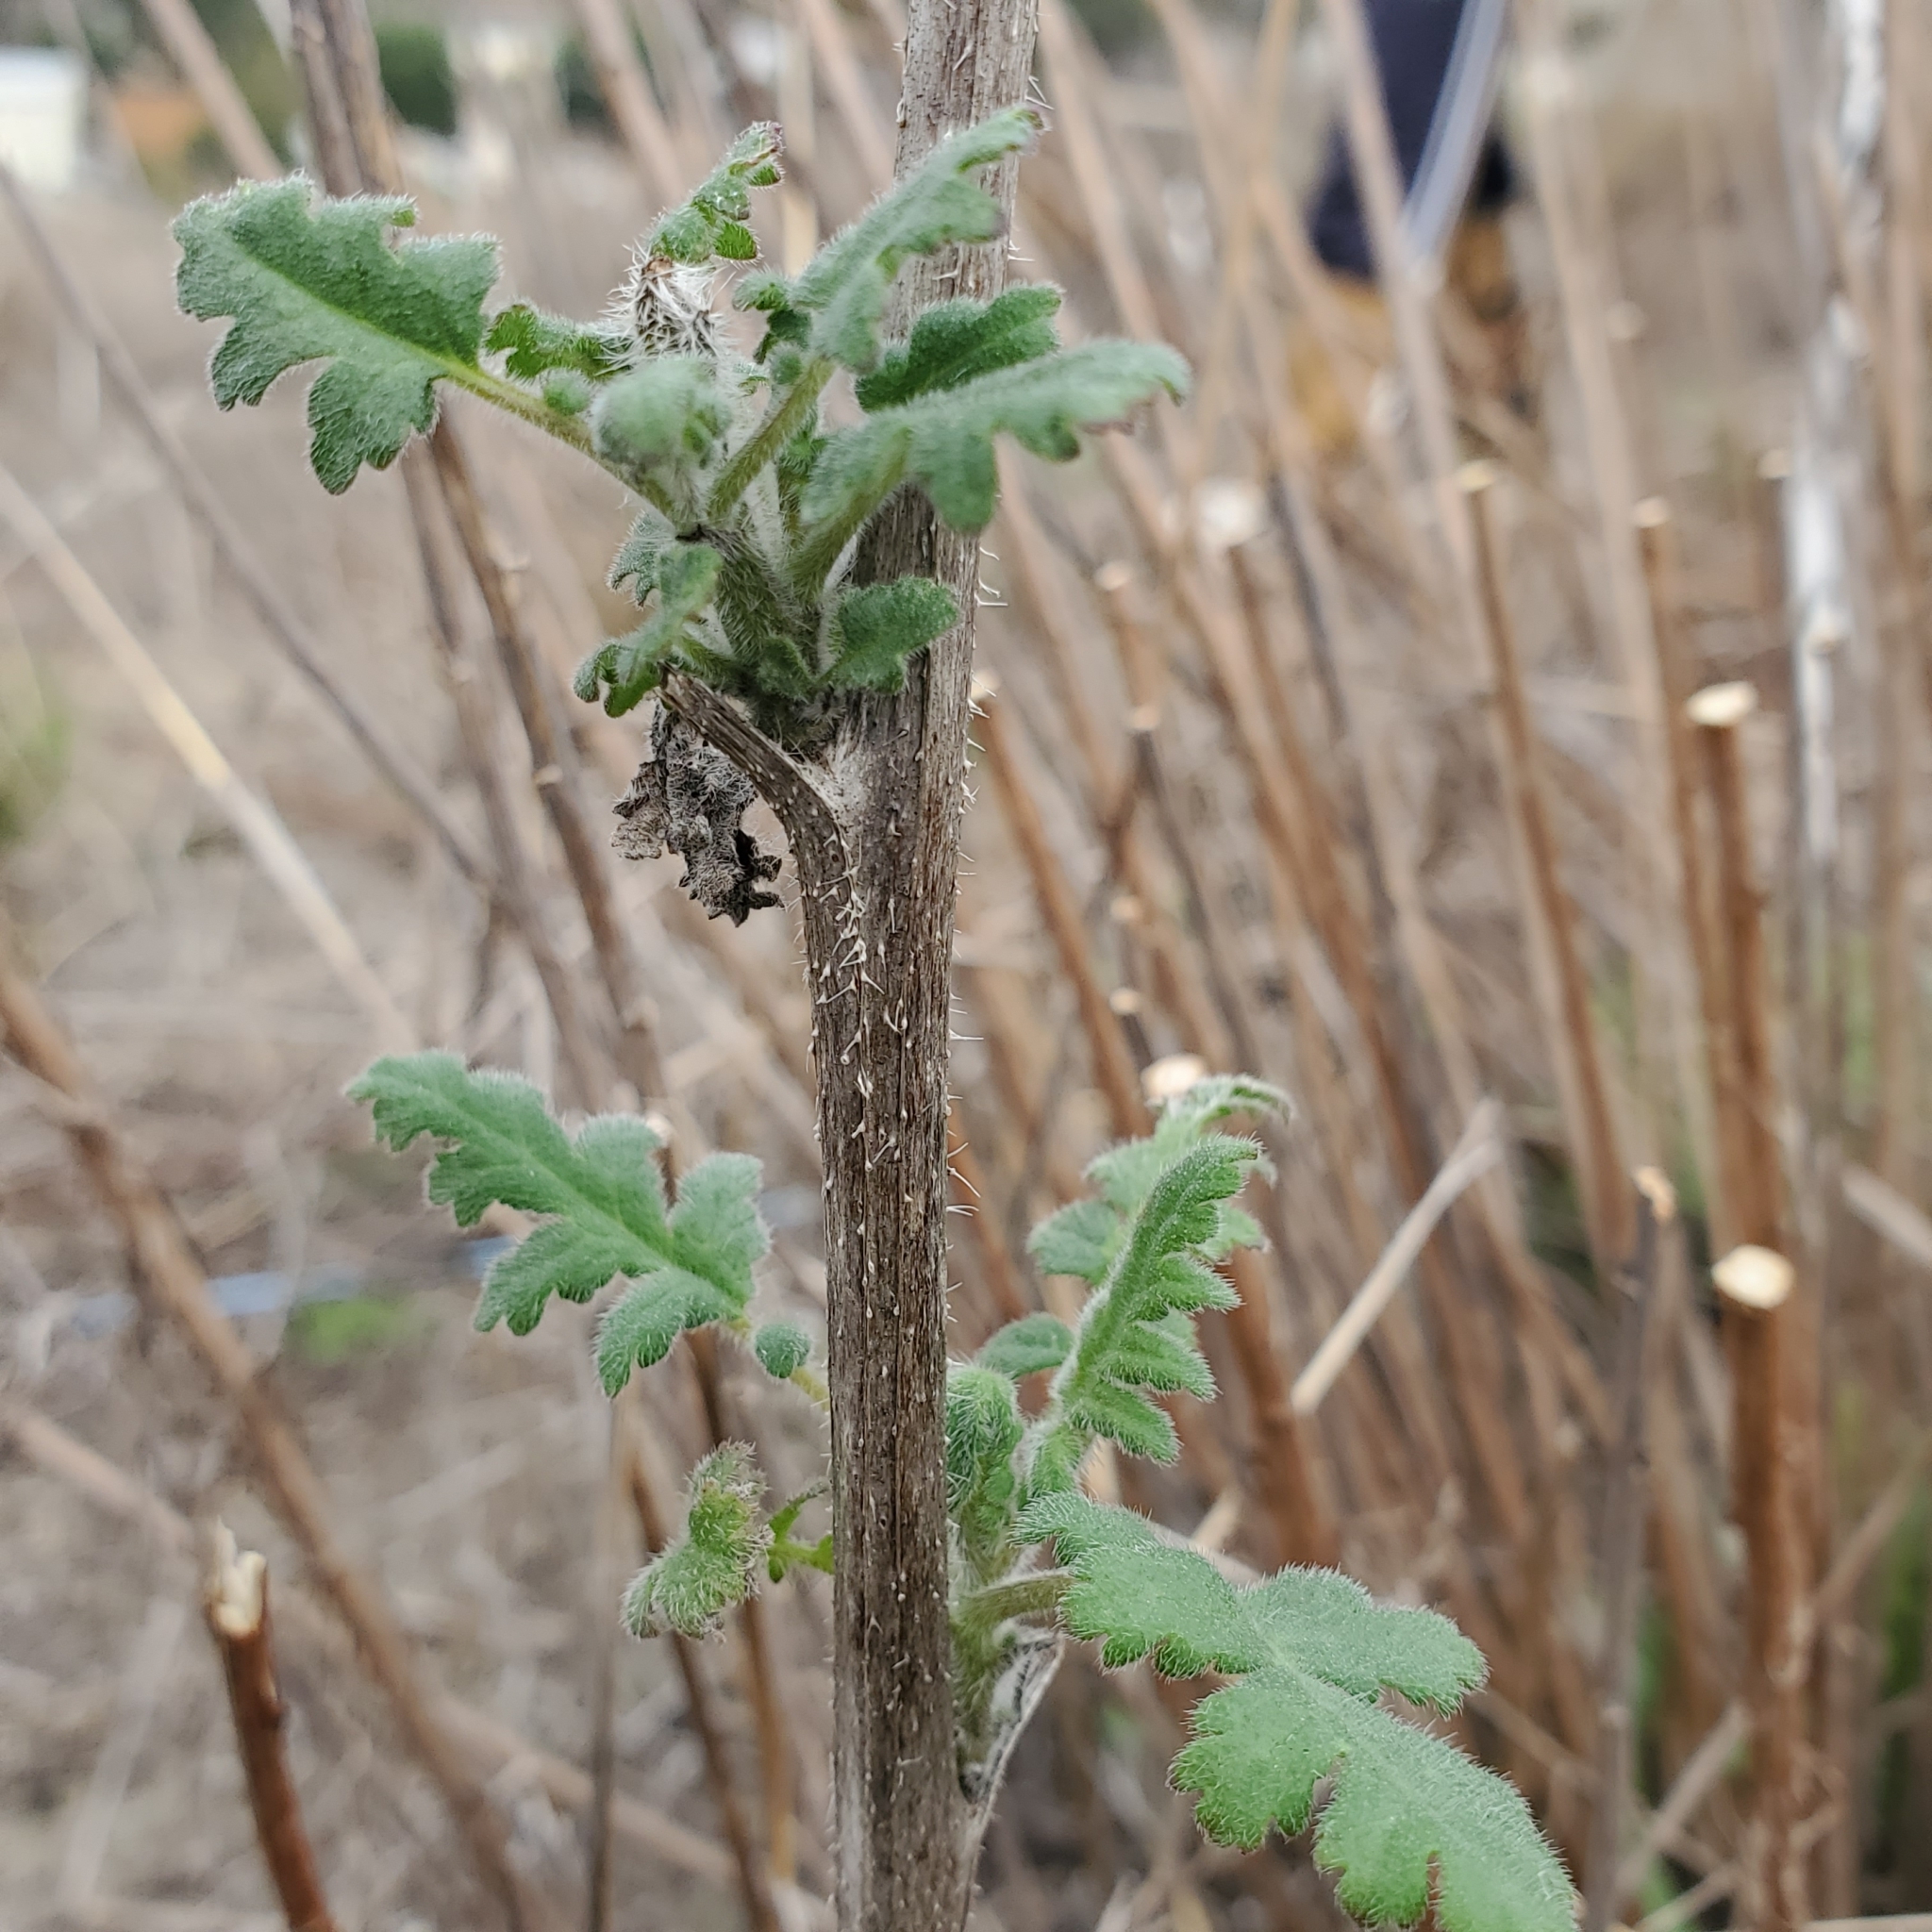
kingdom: Plantae
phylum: Tracheophyta
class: Magnoliopsida
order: Boraginales
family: Hydrophyllaceae
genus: Phacelia
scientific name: Phacelia ramosissima
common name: Branching phacelia
